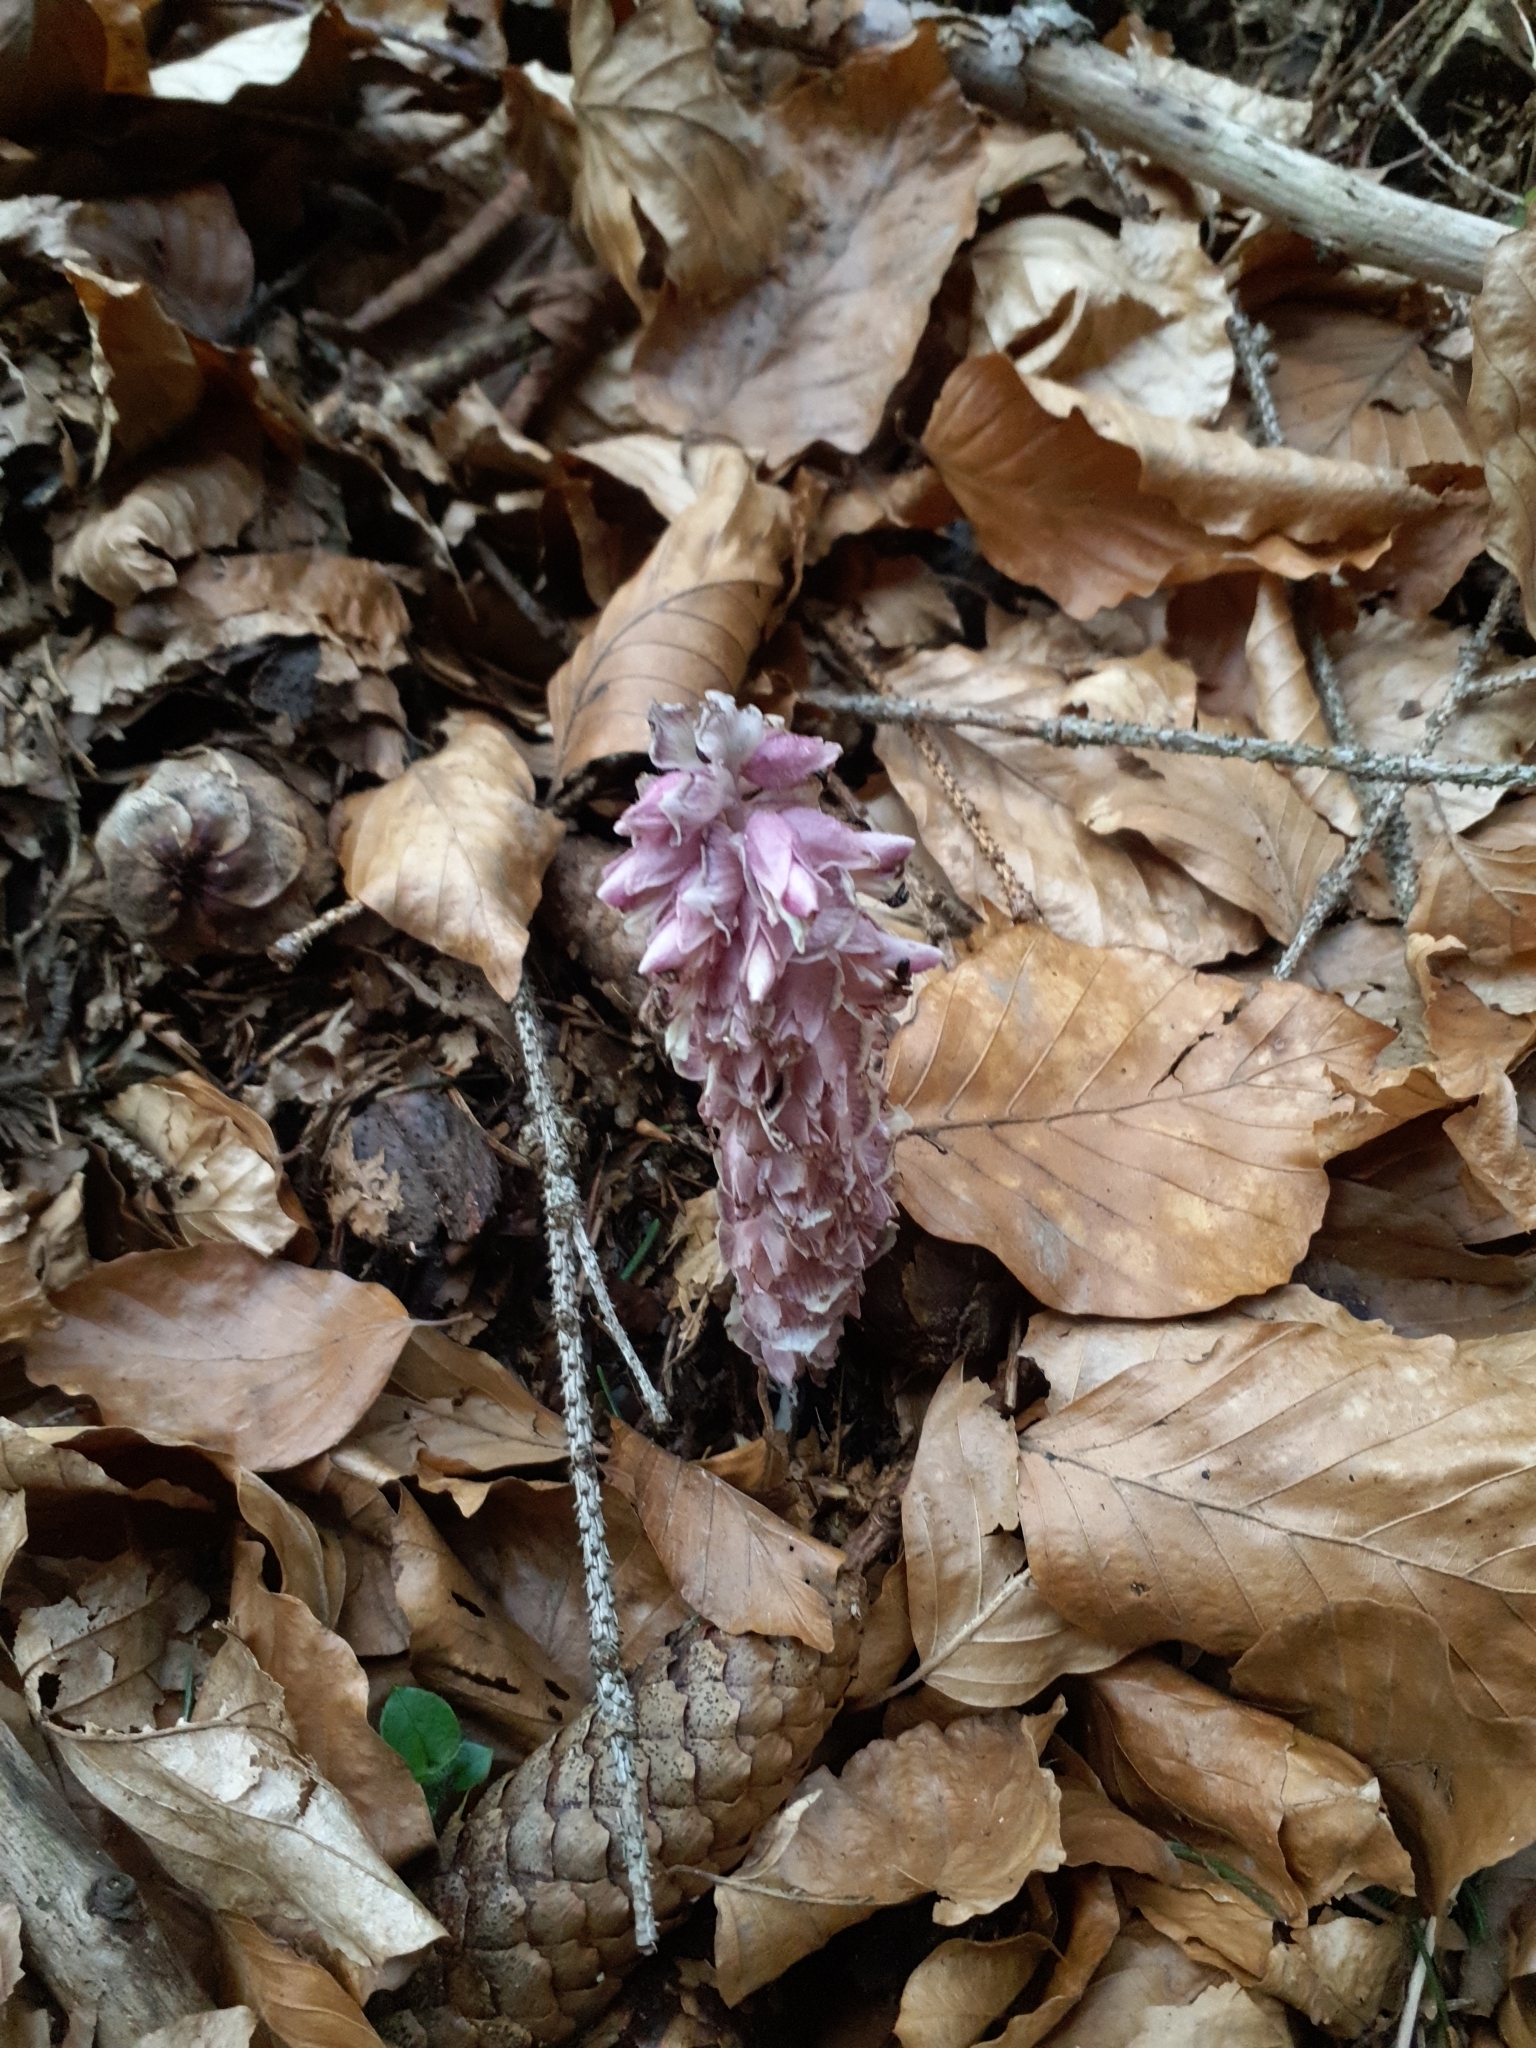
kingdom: Plantae
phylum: Tracheophyta
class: Magnoliopsida
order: Lamiales
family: Orobanchaceae
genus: Lathraea
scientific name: Lathraea squamaria
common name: Toothwort
